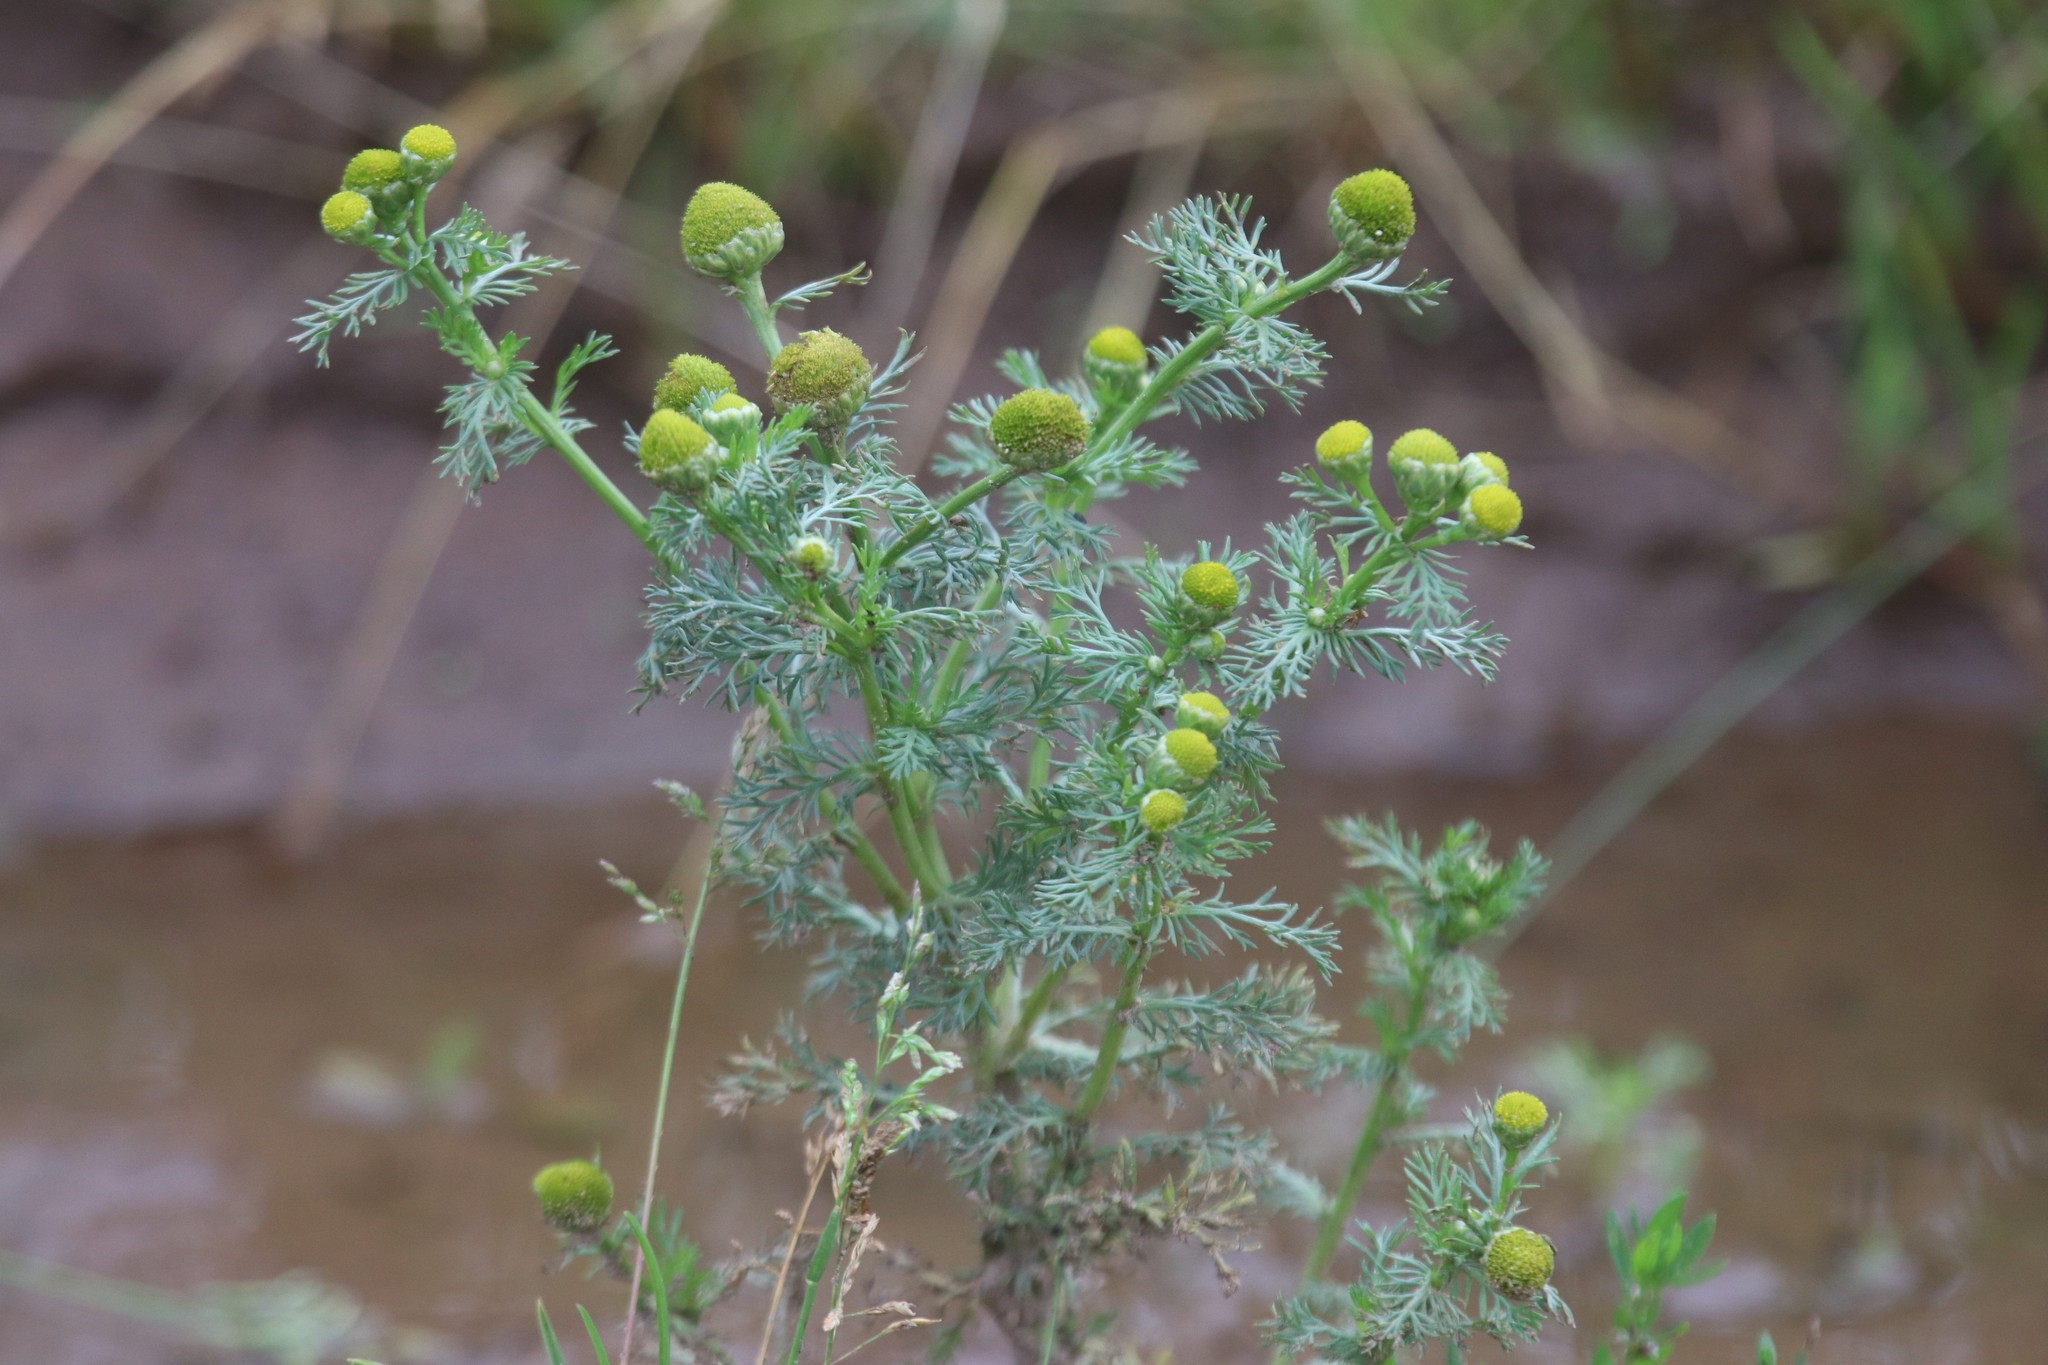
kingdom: Plantae
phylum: Tracheophyta
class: Magnoliopsida
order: Asterales
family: Asteraceae
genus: Matricaria
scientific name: Matricaria discoidea
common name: Disc mayweed
